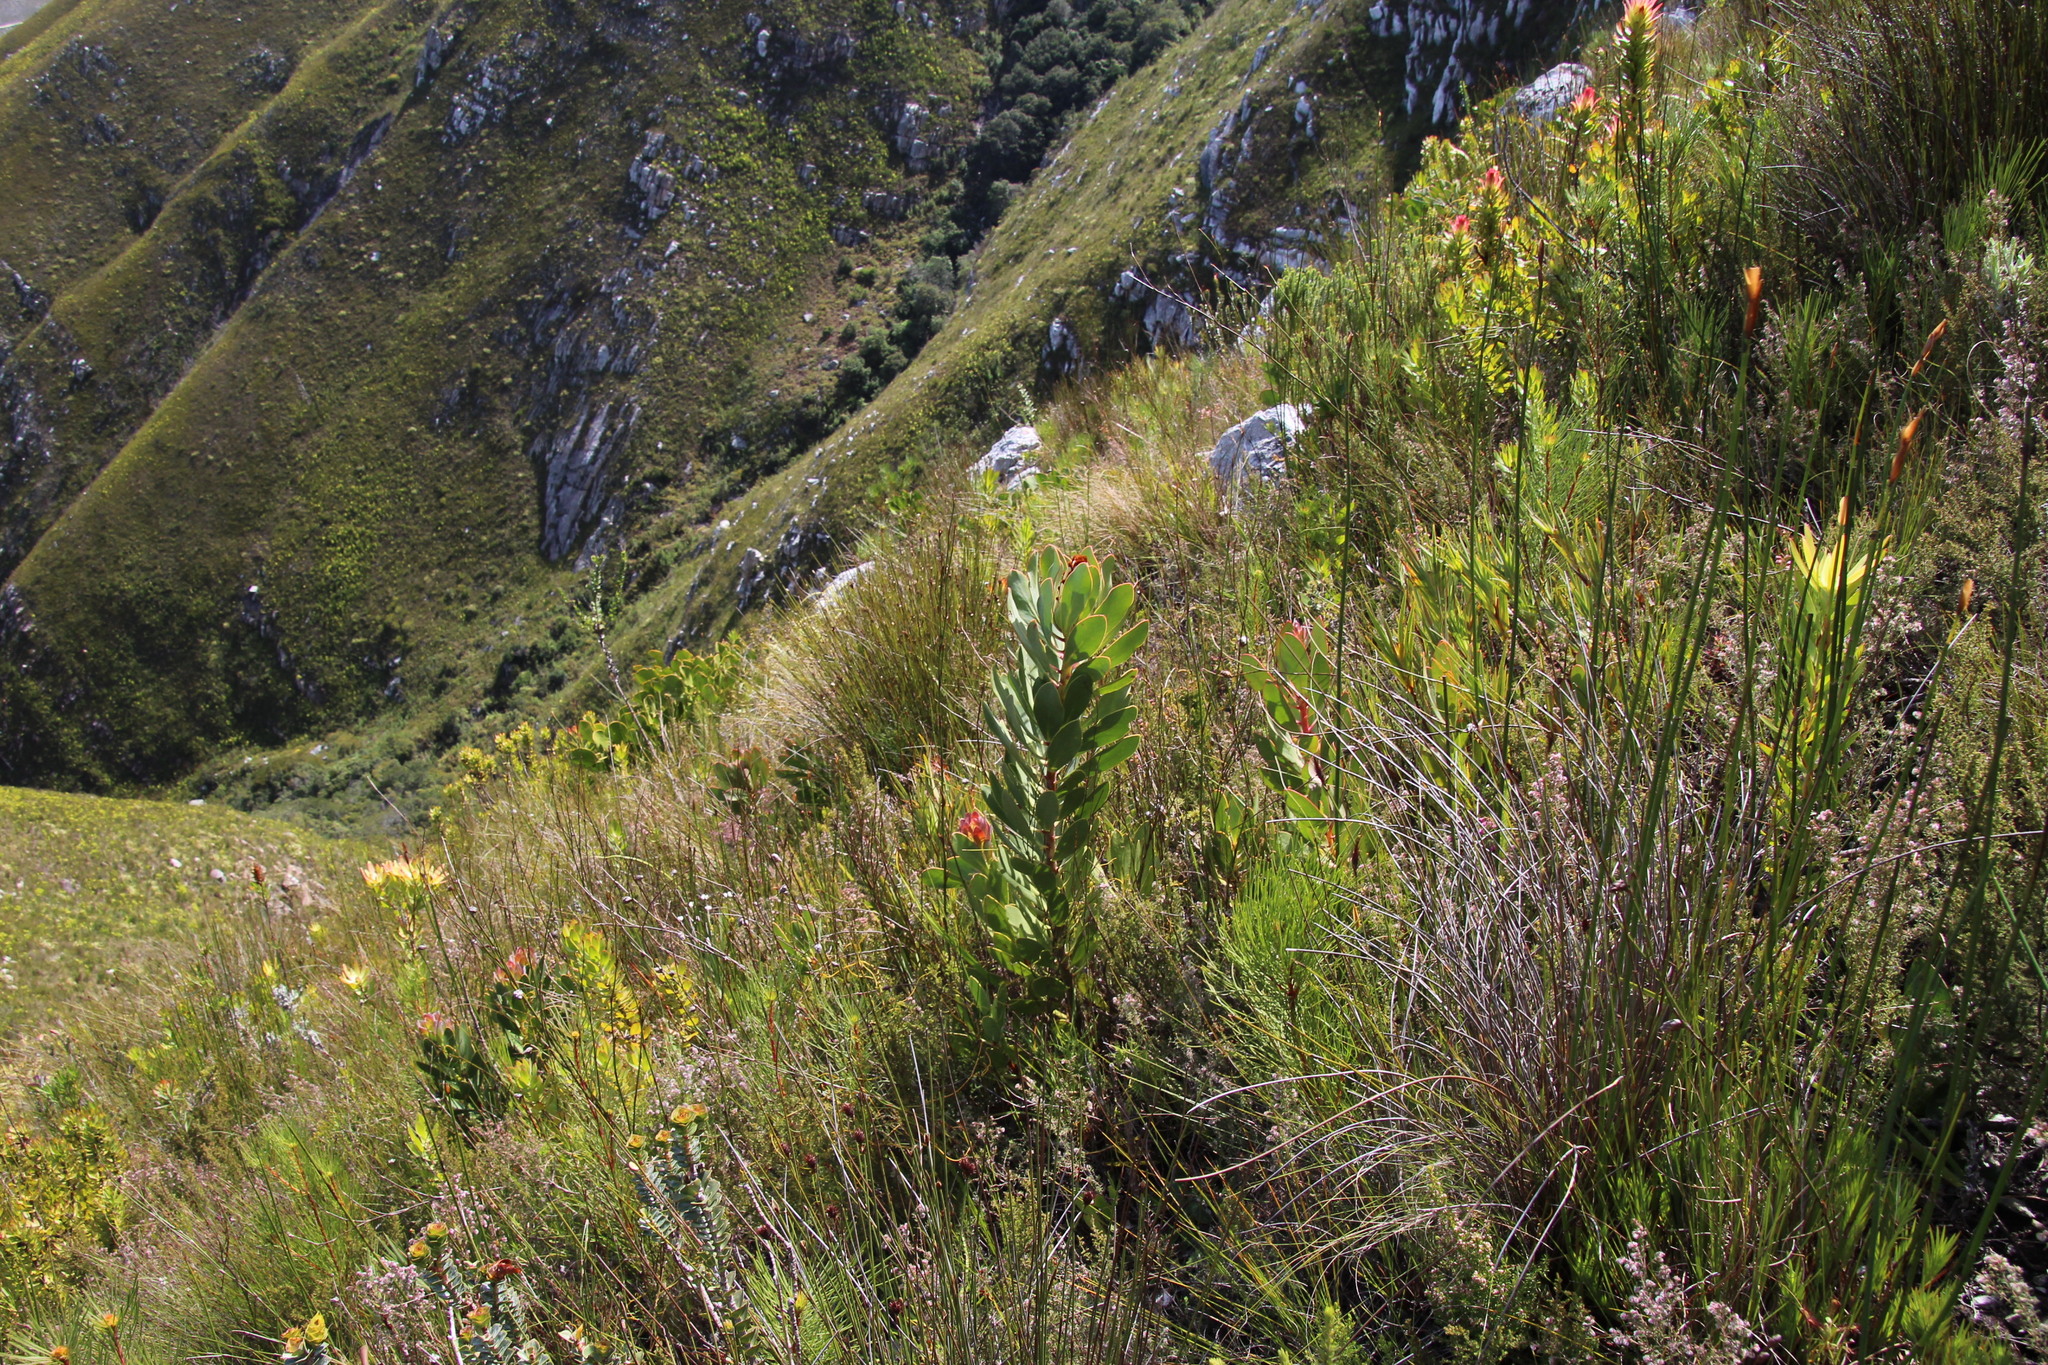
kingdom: Plantae
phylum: Tracheophyta
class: Magnoliopsida
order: Proteales
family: Proteaceae
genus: Protea
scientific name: Protea speciosa
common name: Brown-beard sugarbush
